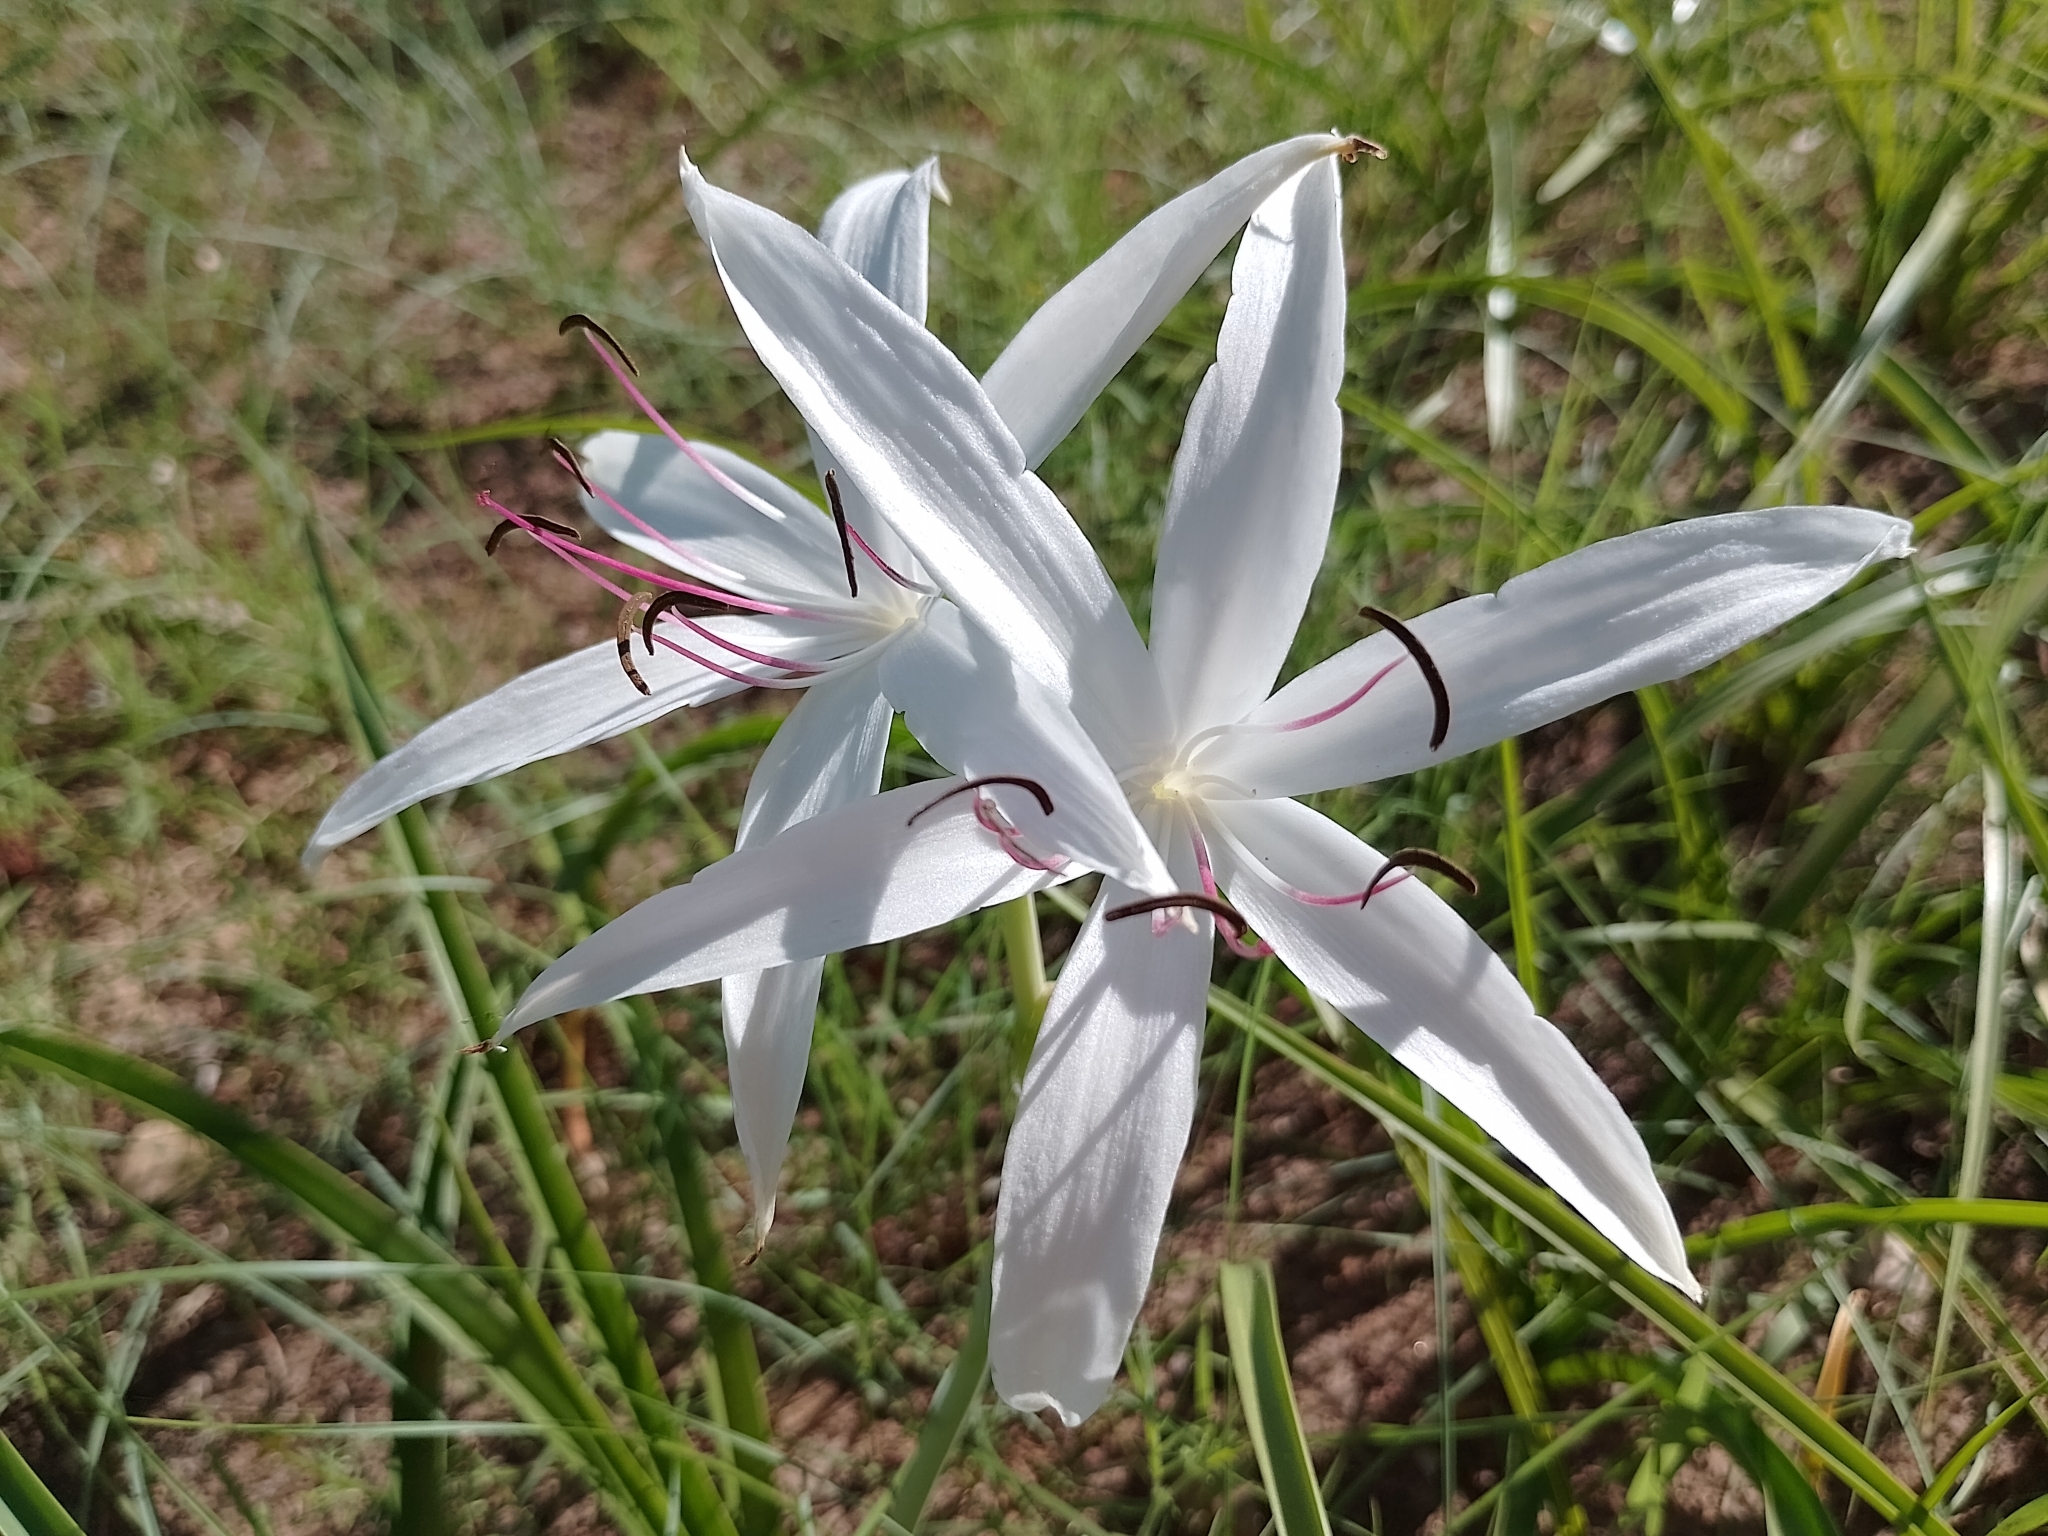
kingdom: Plantae
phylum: Tracheophyta
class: Liliopsida
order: Asparagales
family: Amaryllidaceae
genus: Crinum
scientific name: Crinum uniflorum
